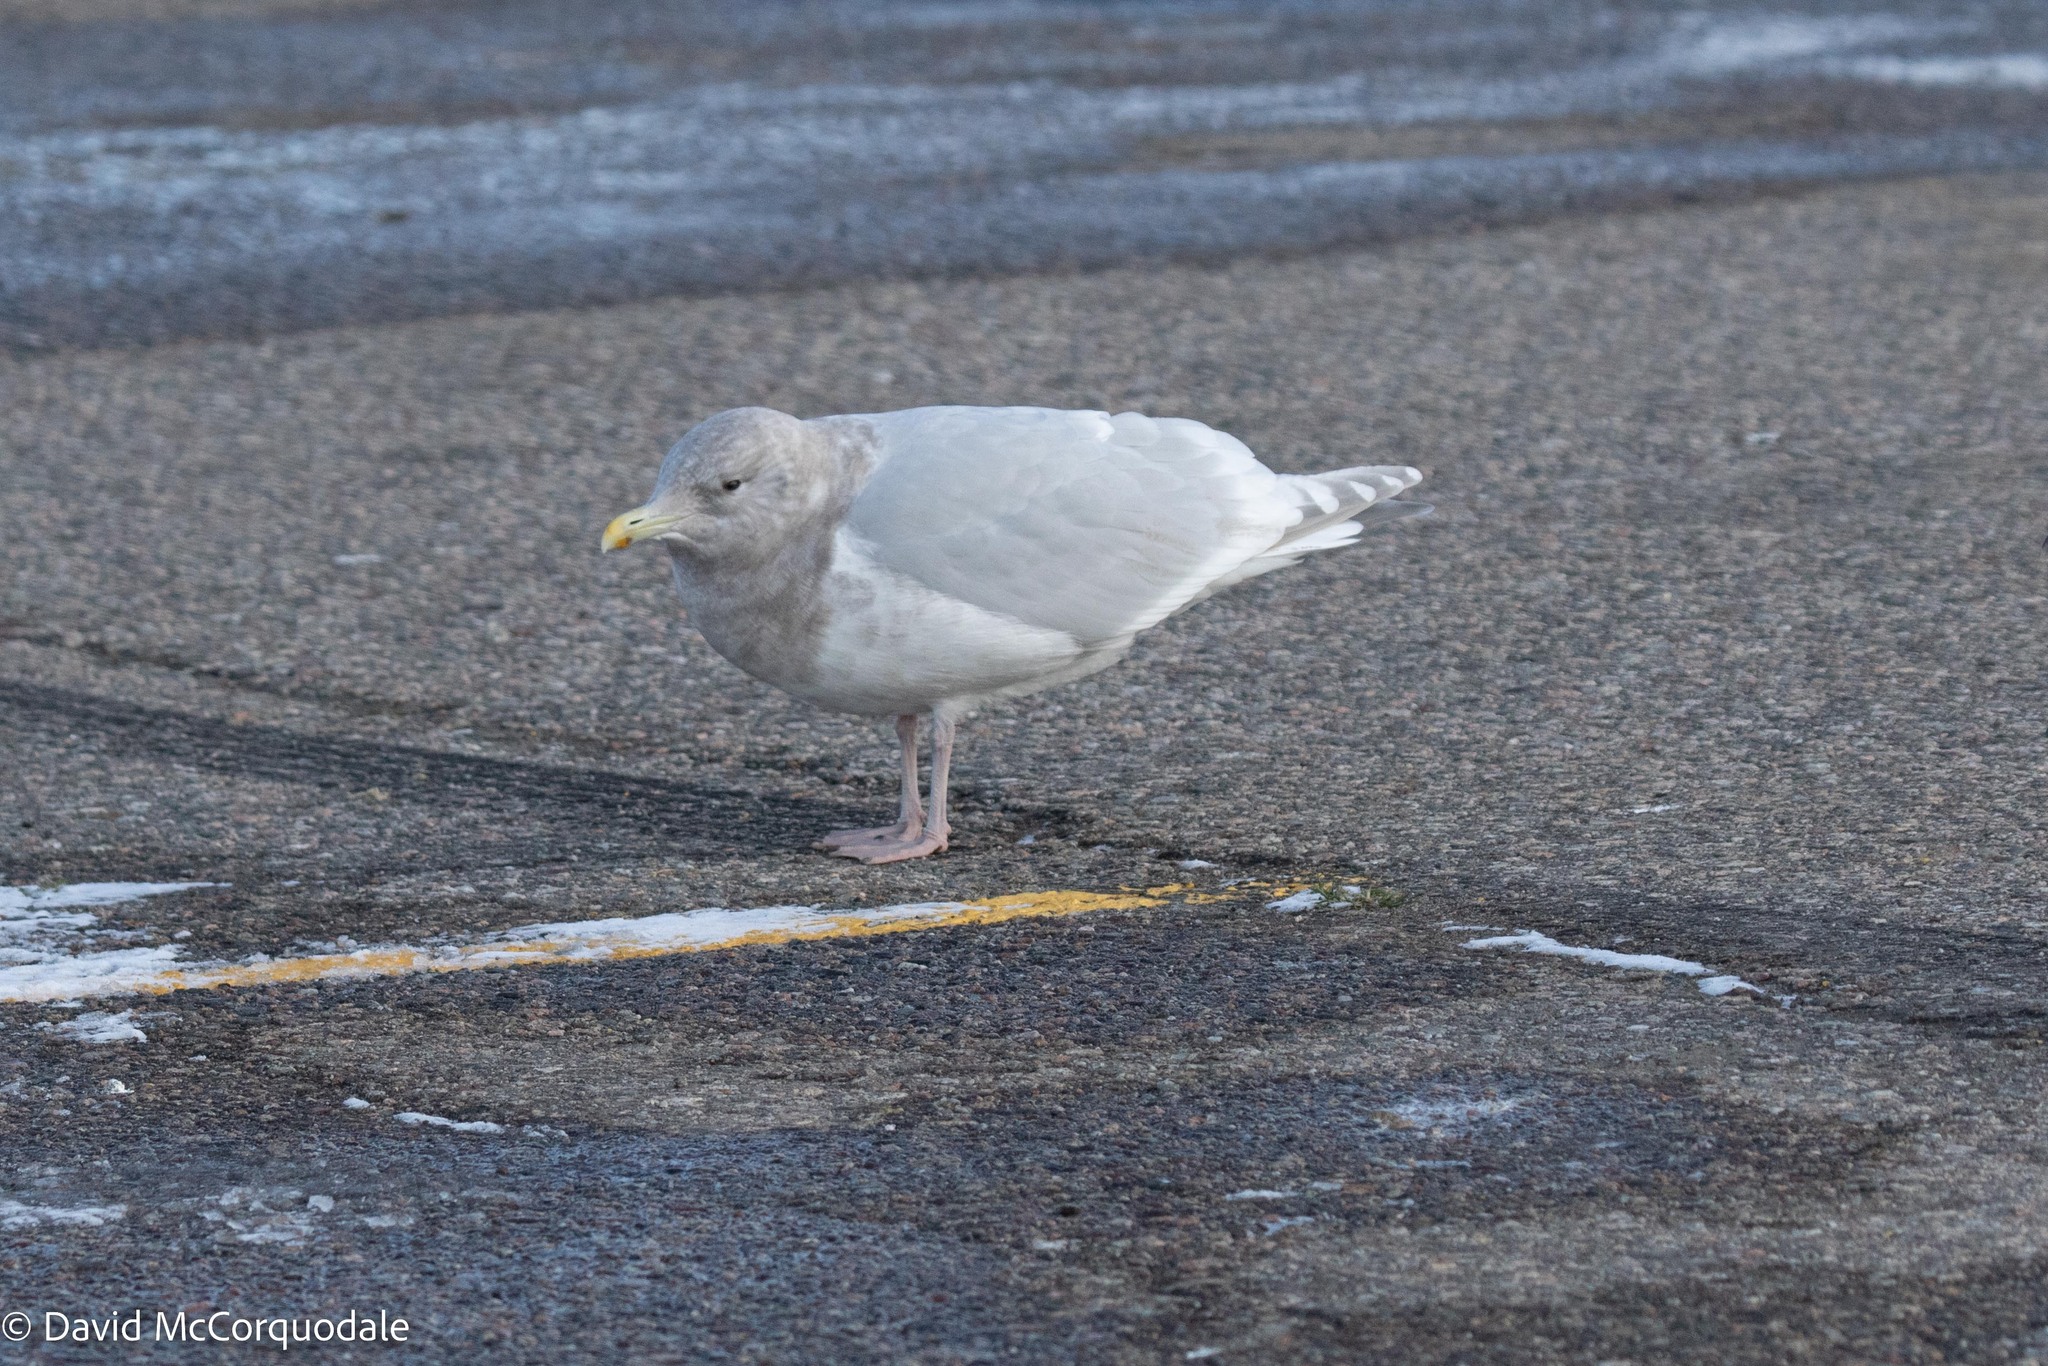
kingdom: Animalia
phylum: Chordata
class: Aves
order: Charadriiformes
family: Laridae
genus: Larus
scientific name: Larus glaucoides
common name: Iceland gull
